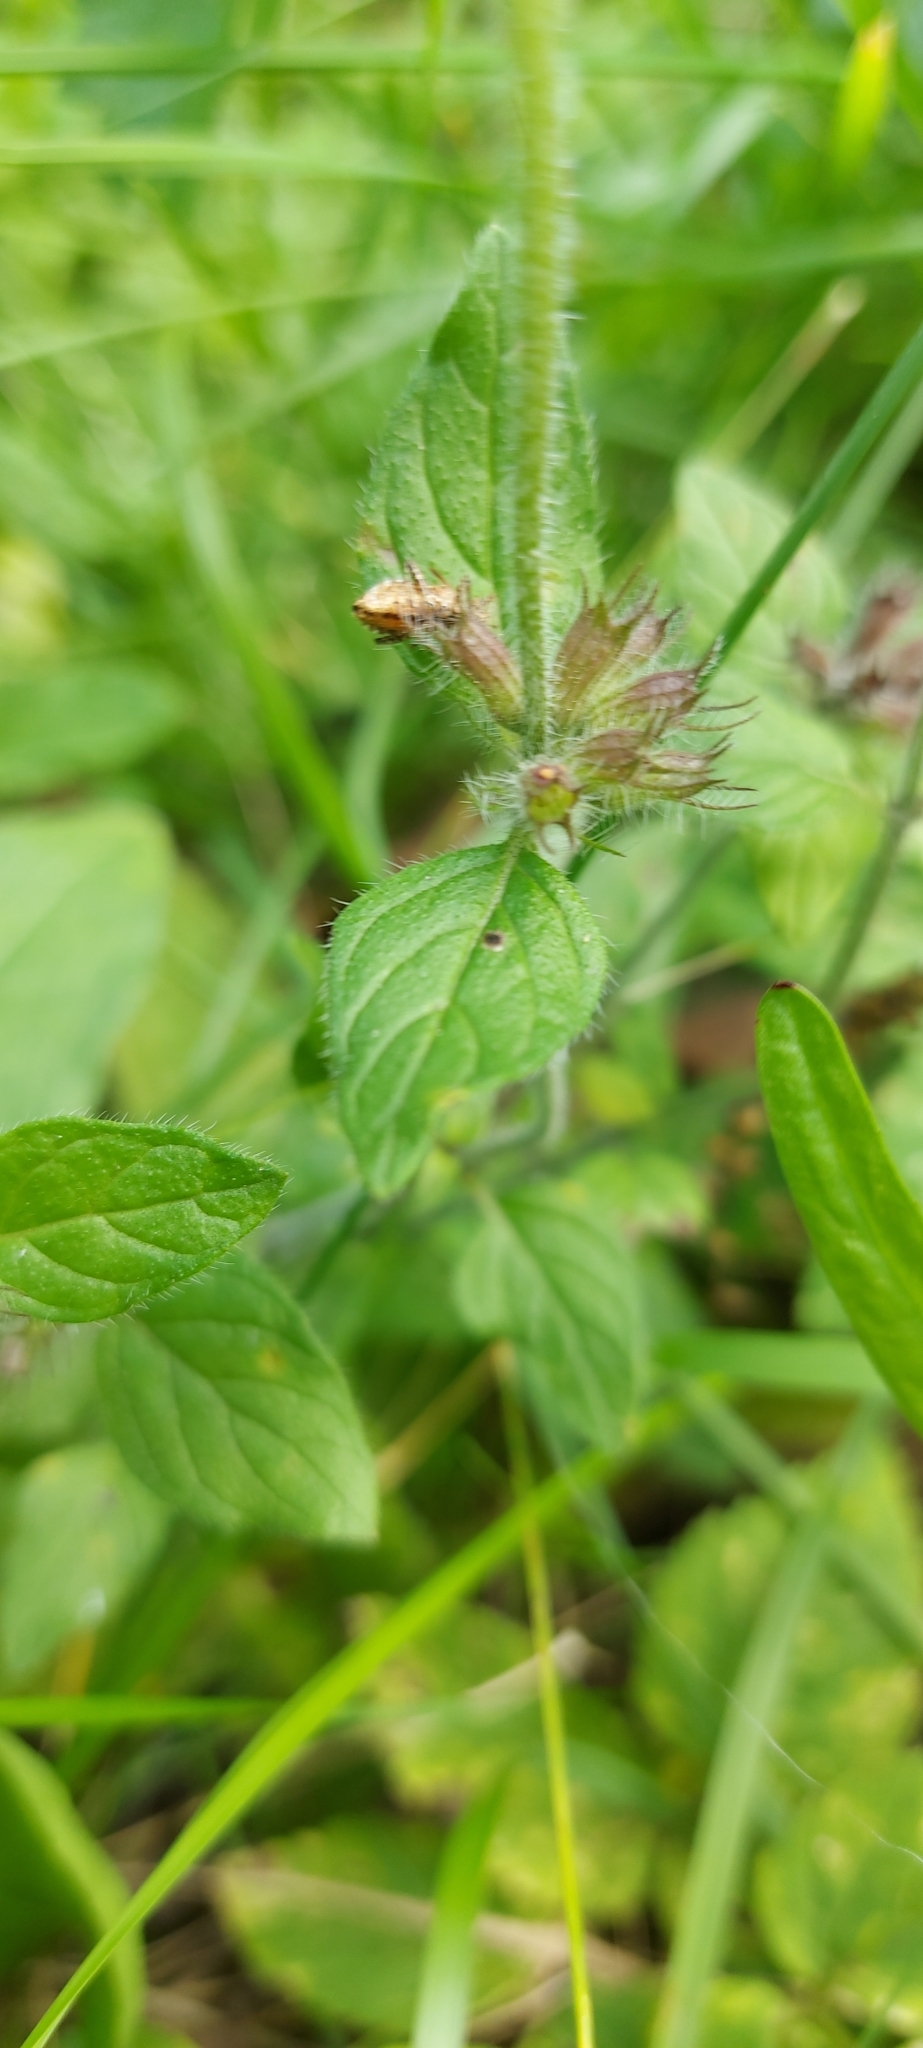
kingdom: Plantae
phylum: Tracheophyta
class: Magnoliopsida
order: Lamiales
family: Lamiaceae
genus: Clinopodium
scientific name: Clinopodium vulgare
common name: Wild basil
